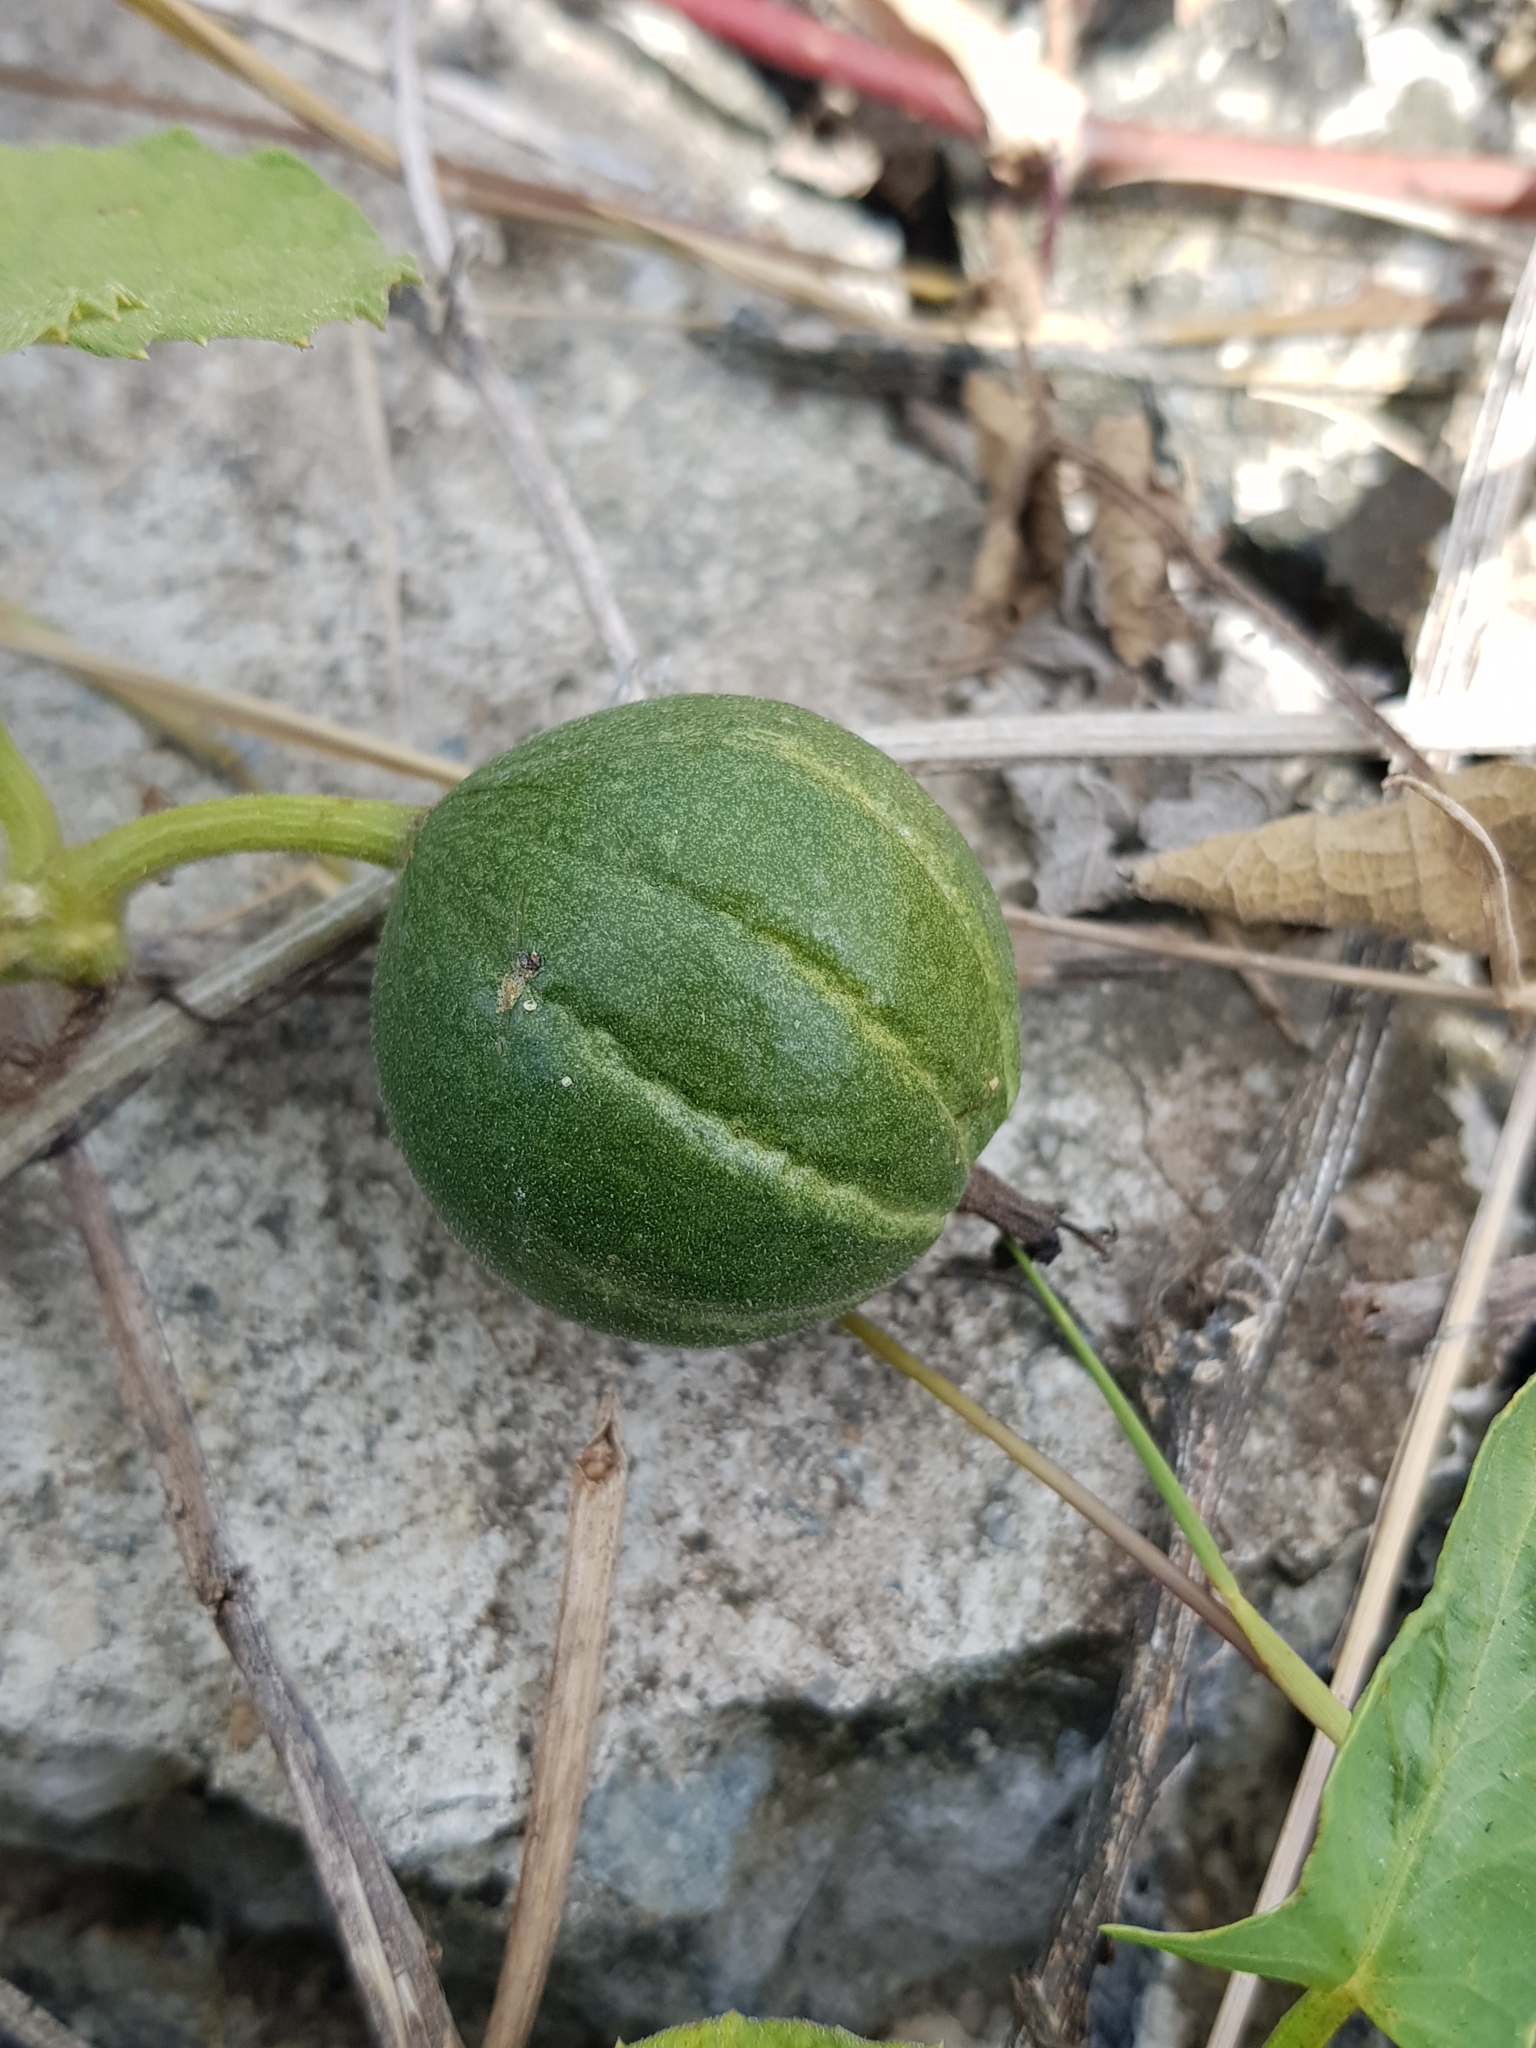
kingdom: Plantae
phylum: Tracheophyta
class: Magnoliopsida
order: Cucurbitales
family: Cucurbitaceae
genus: Trichosanthes
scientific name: Trichosanthes scabra
